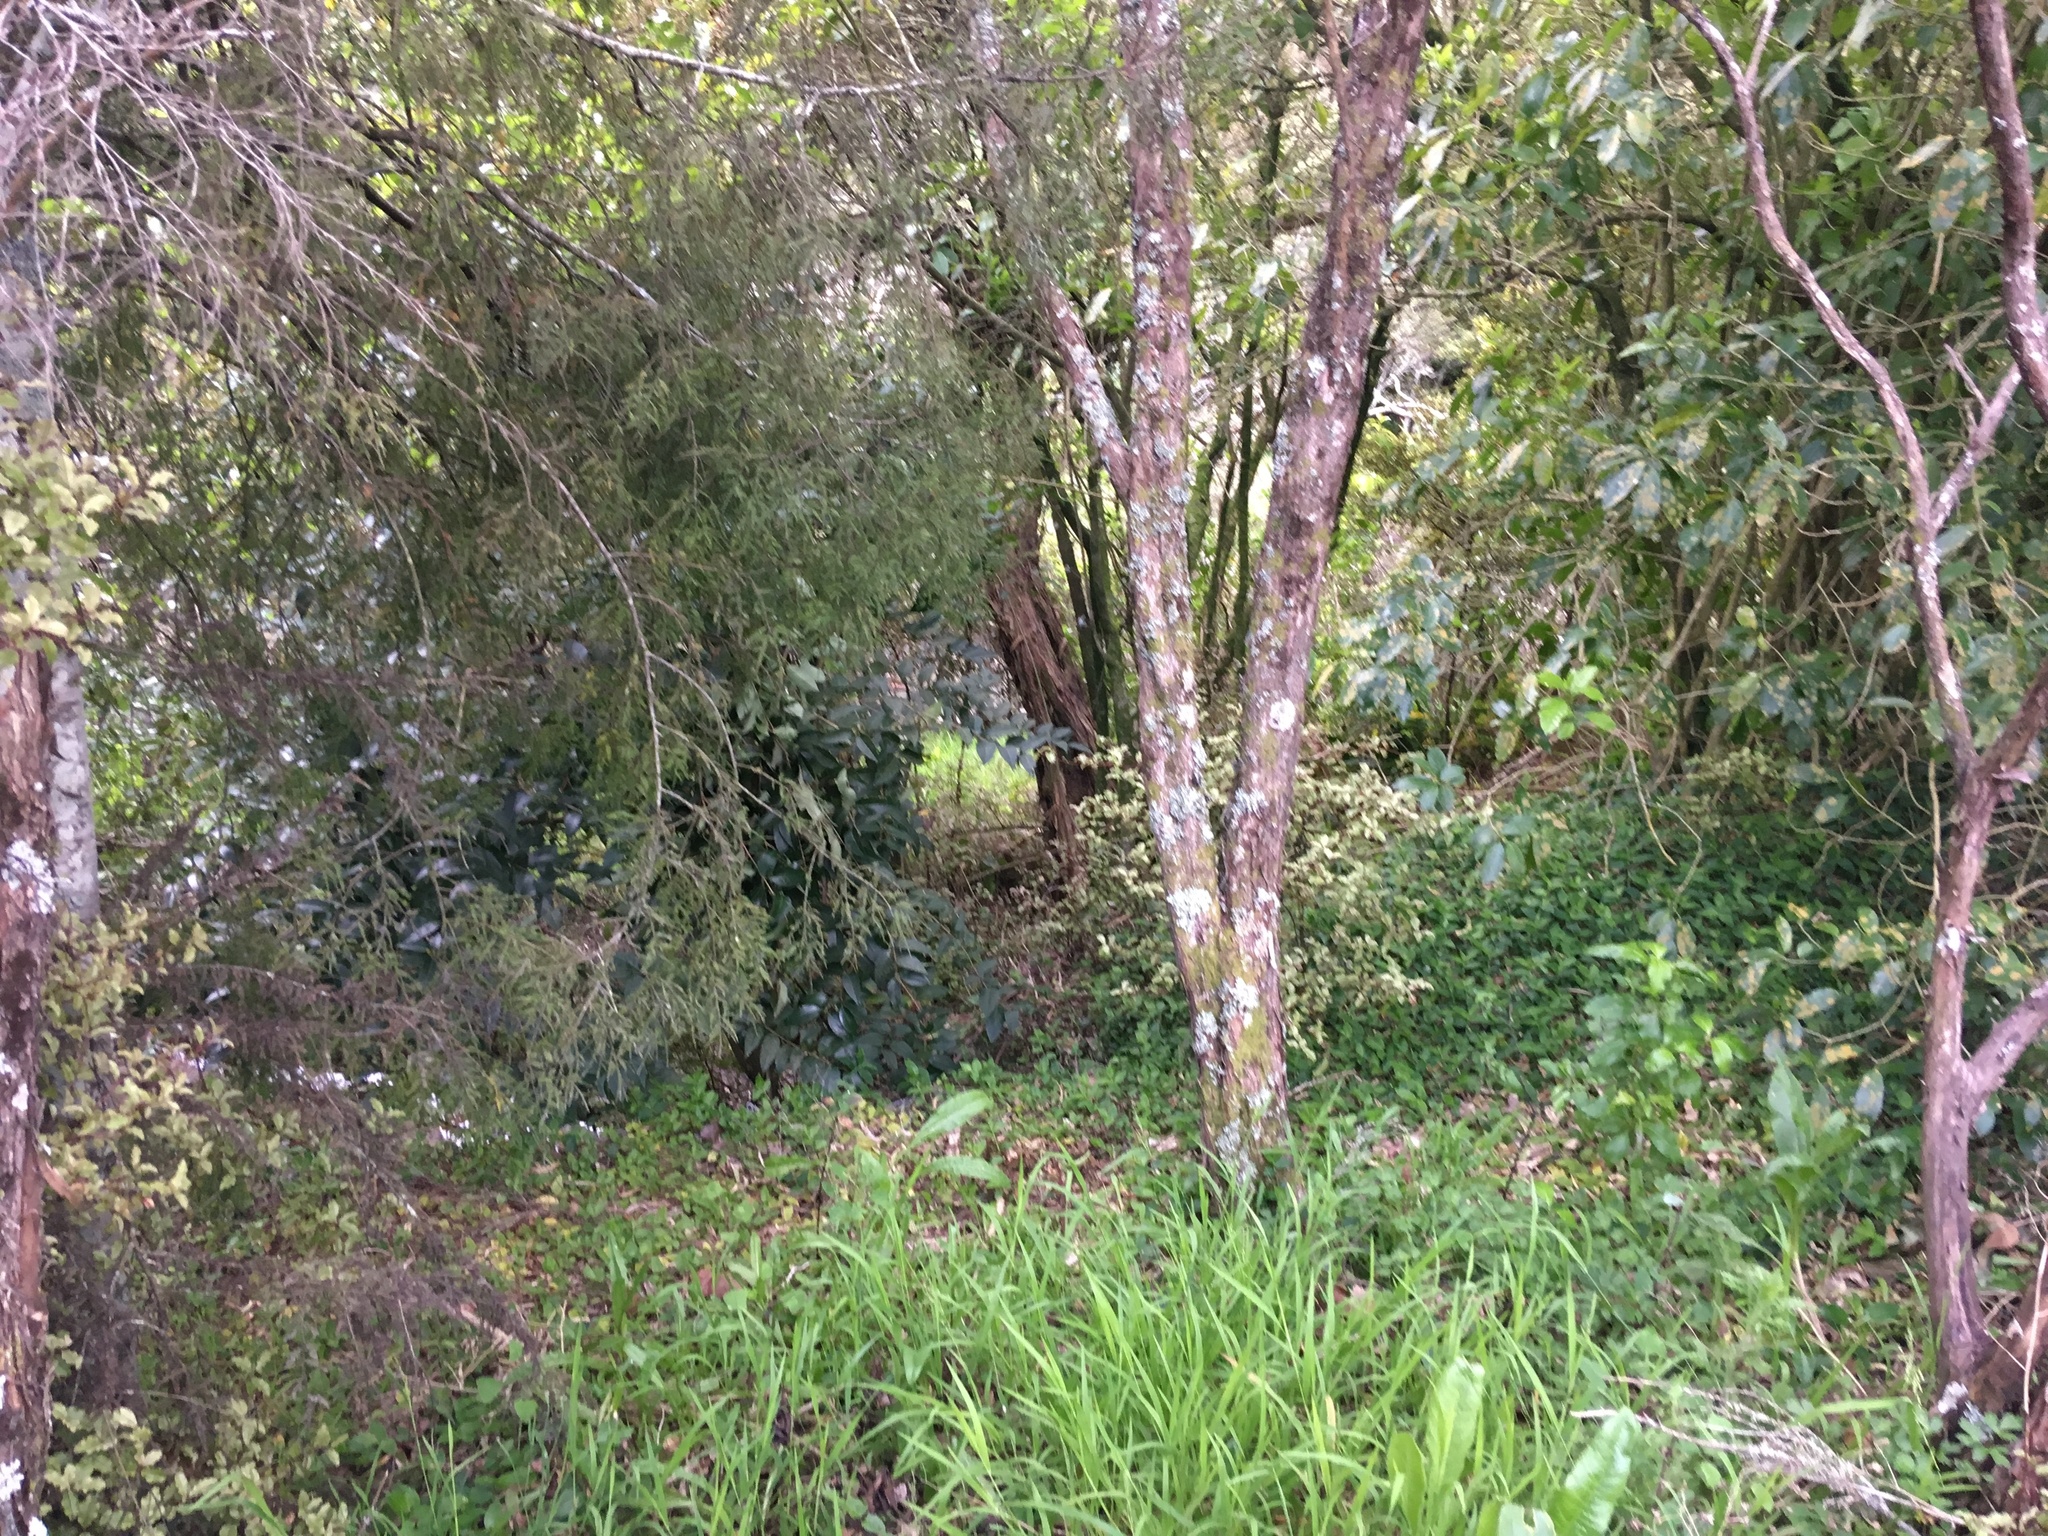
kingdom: Plantae
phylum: Tracheophyta
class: Magnoliopsida
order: Lamiales
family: Oleaceae
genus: Ligustrum
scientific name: Ligustrum lucidum
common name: Glossy privet
